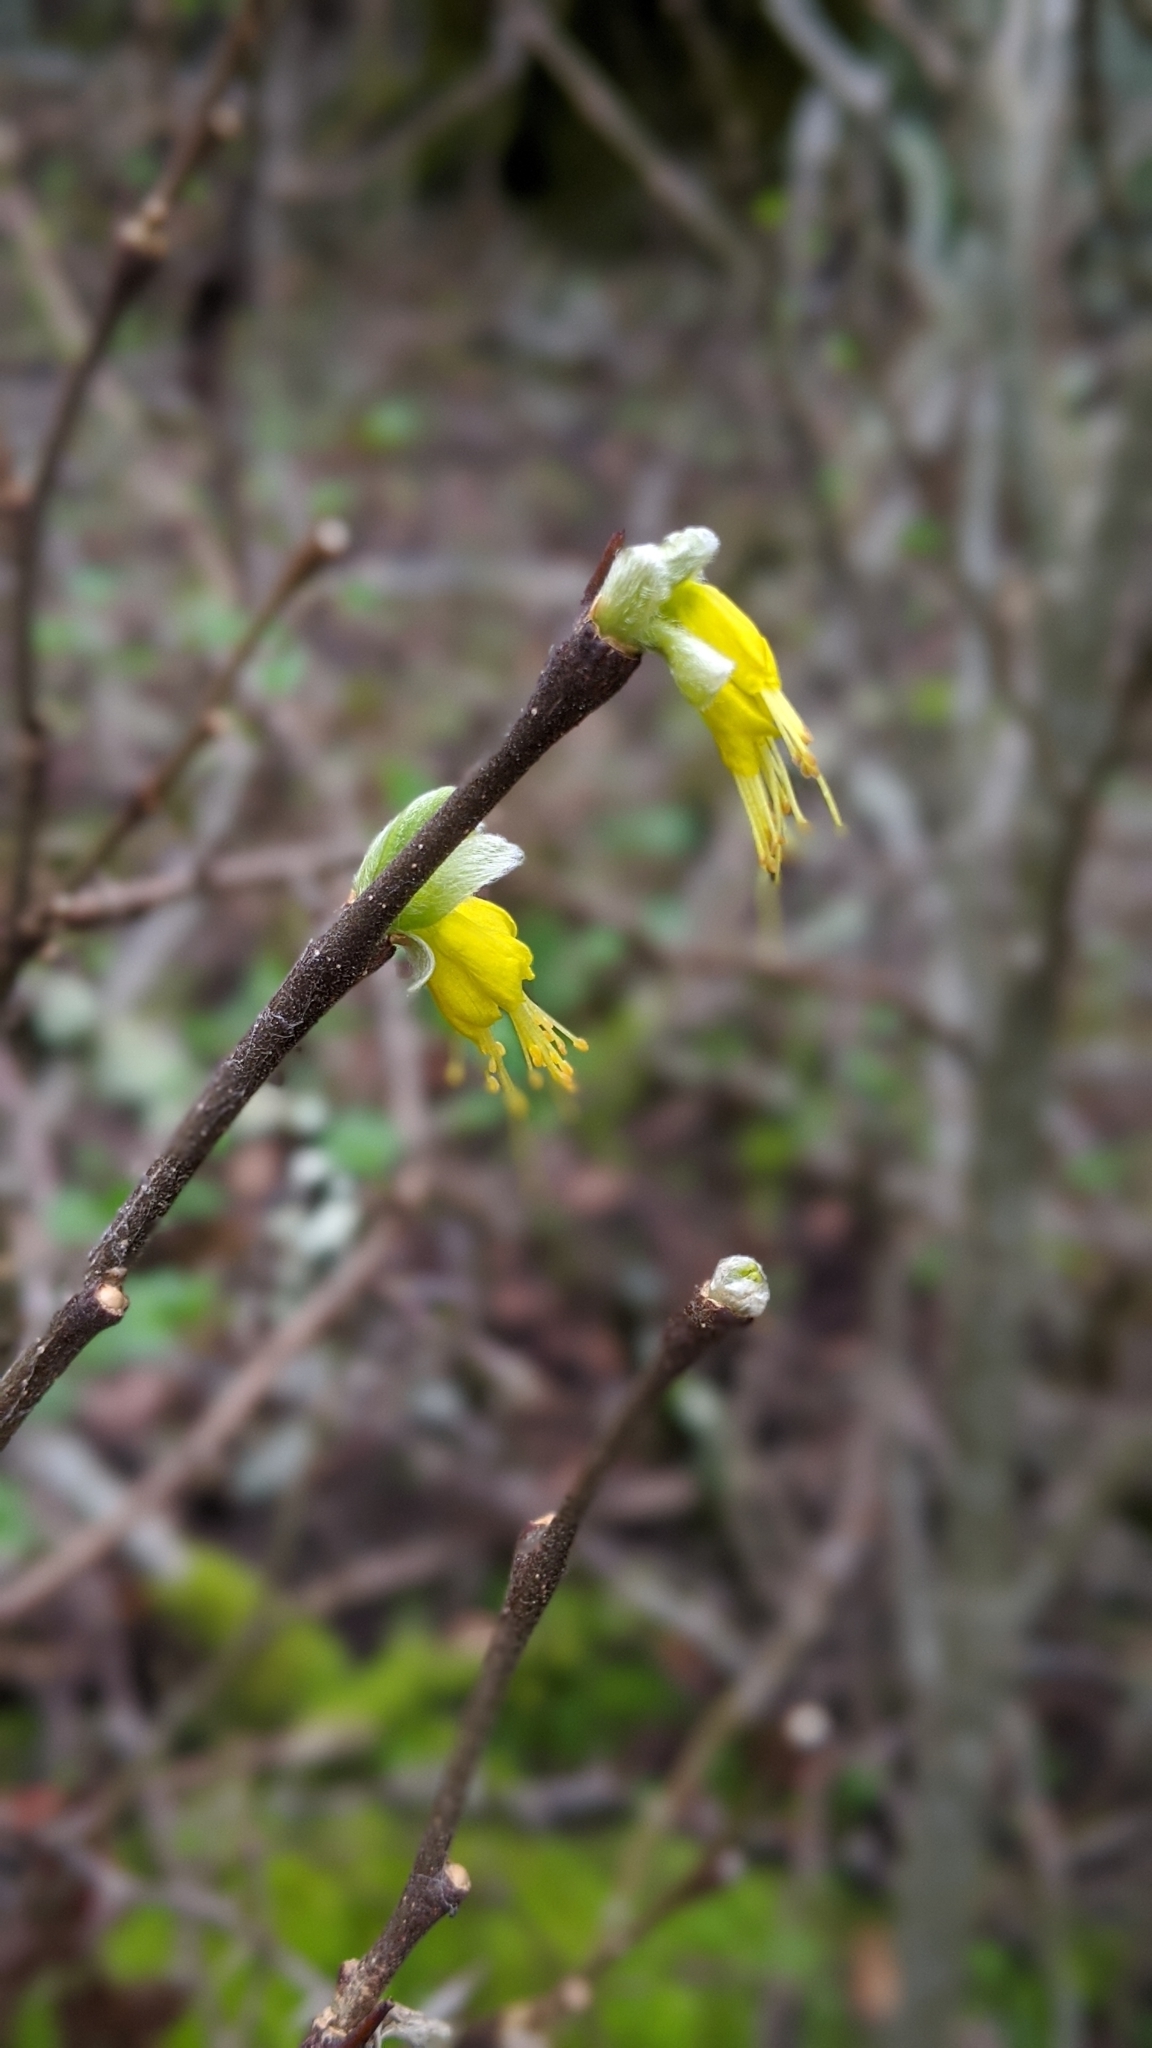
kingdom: Plantae
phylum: Tracheophyta
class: Magnoliopsida
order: Malvales
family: Thymelaeaceae
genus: Dirca
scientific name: Dirca occidentalis
